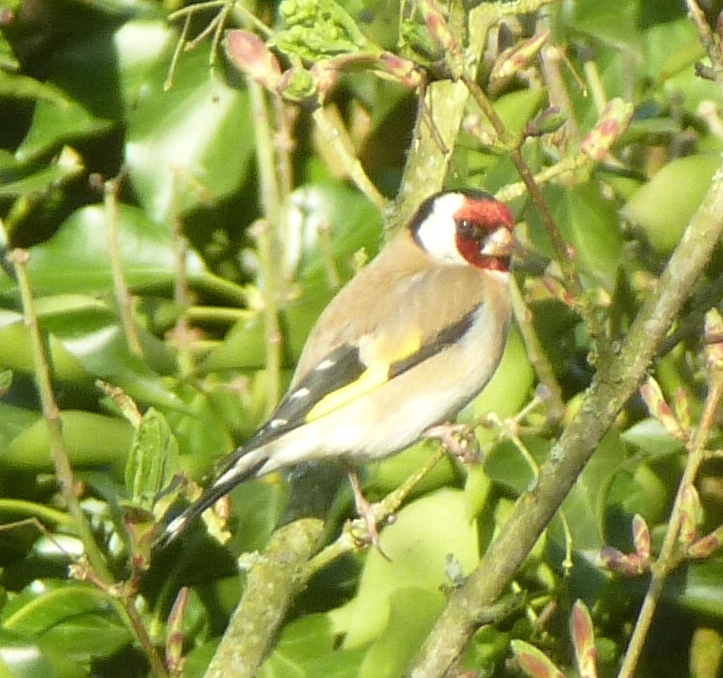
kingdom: Animalia
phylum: Chordata
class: Aves
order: Passeriformes
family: Fringillidae
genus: Carduelis
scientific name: Carduelis carduelis
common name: European goldfinch
